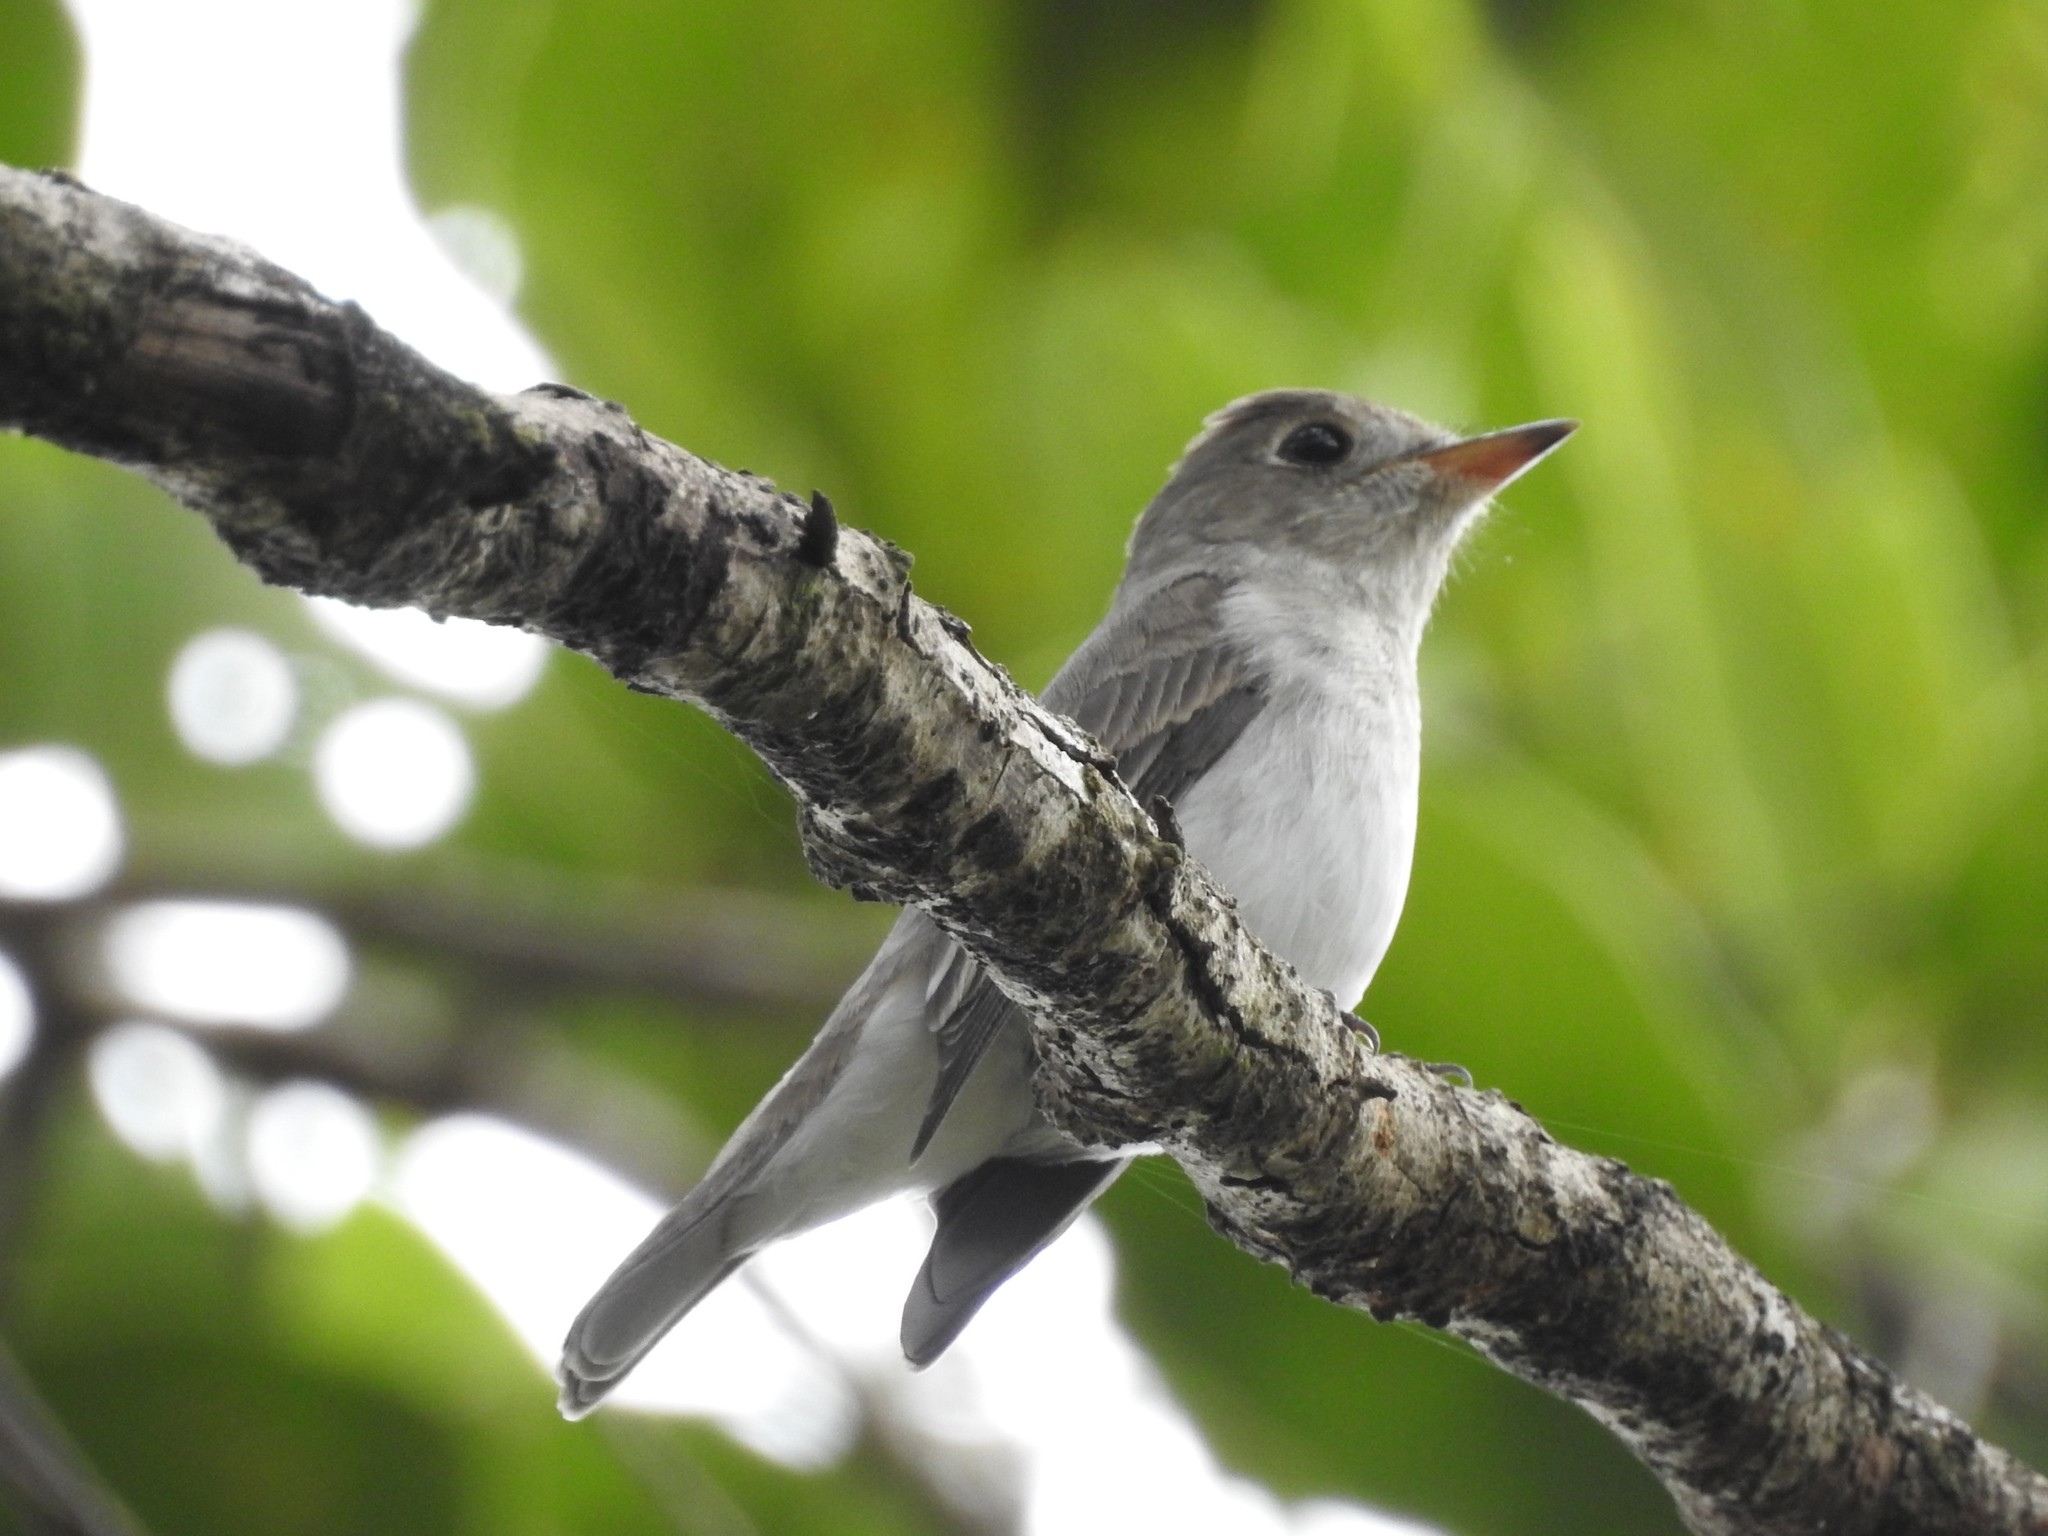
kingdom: Animalia
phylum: Chordata
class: Aves
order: Passeriformes
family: Muscicapidae
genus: Muscicapa
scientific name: Muscicapa latirostris
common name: Asian brown flycatcher
